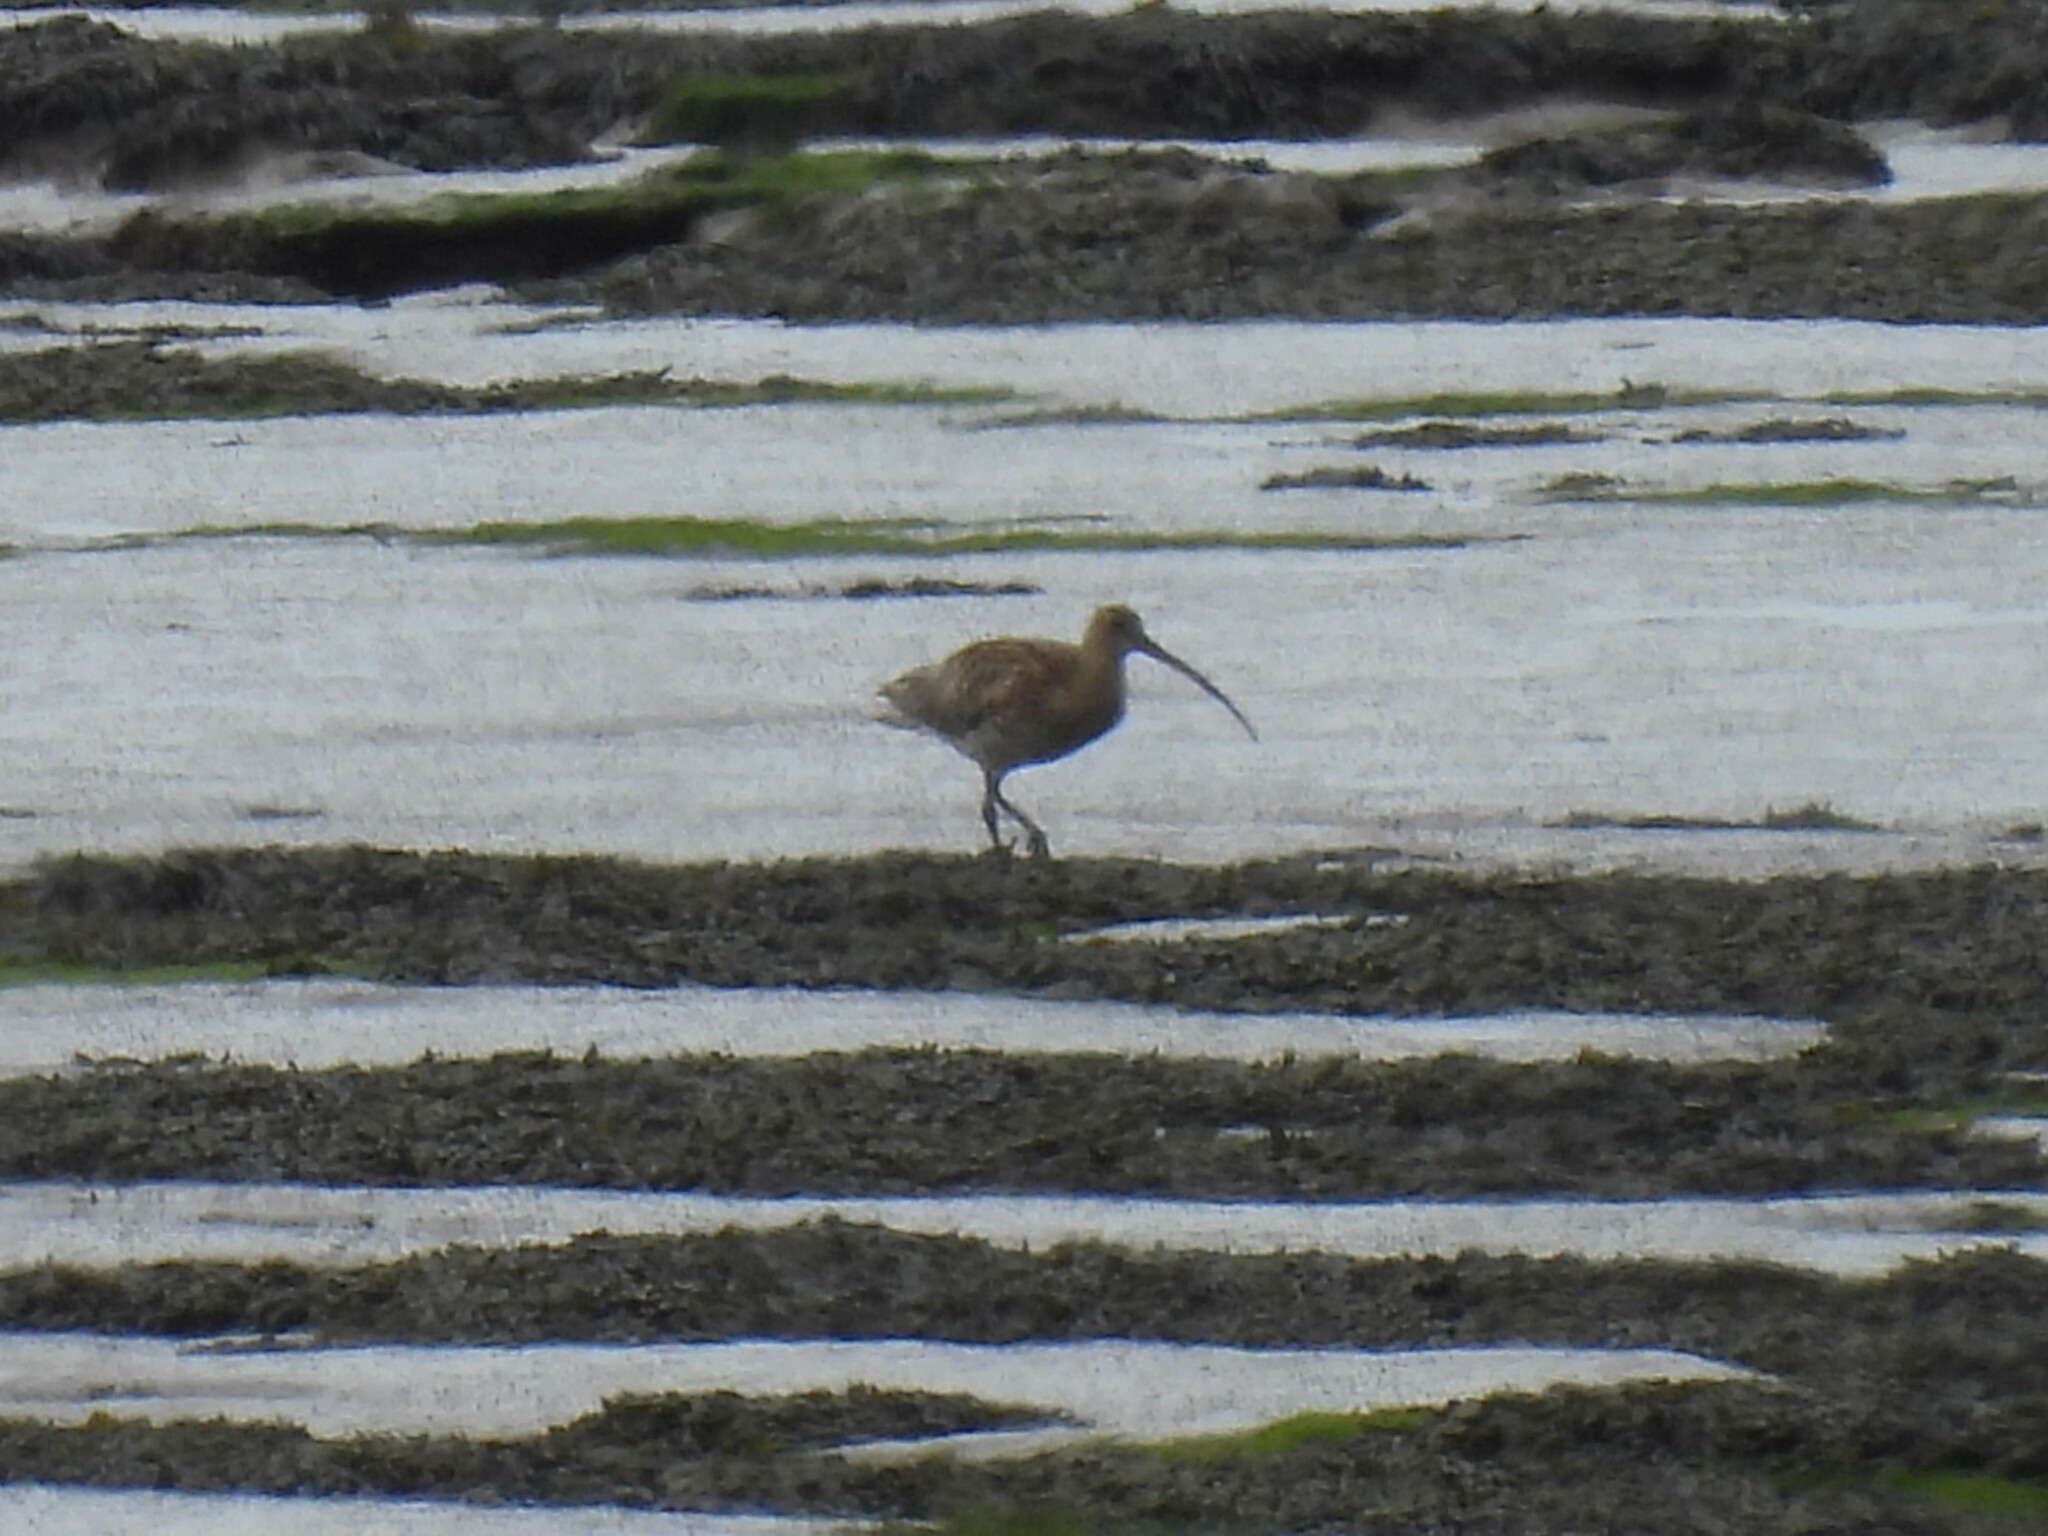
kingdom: Animalia
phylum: Chordata
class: Aves
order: Charadriiformes
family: Scolopacidae
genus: Numenius
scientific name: Numenius arquata
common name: Eurasian curlew
